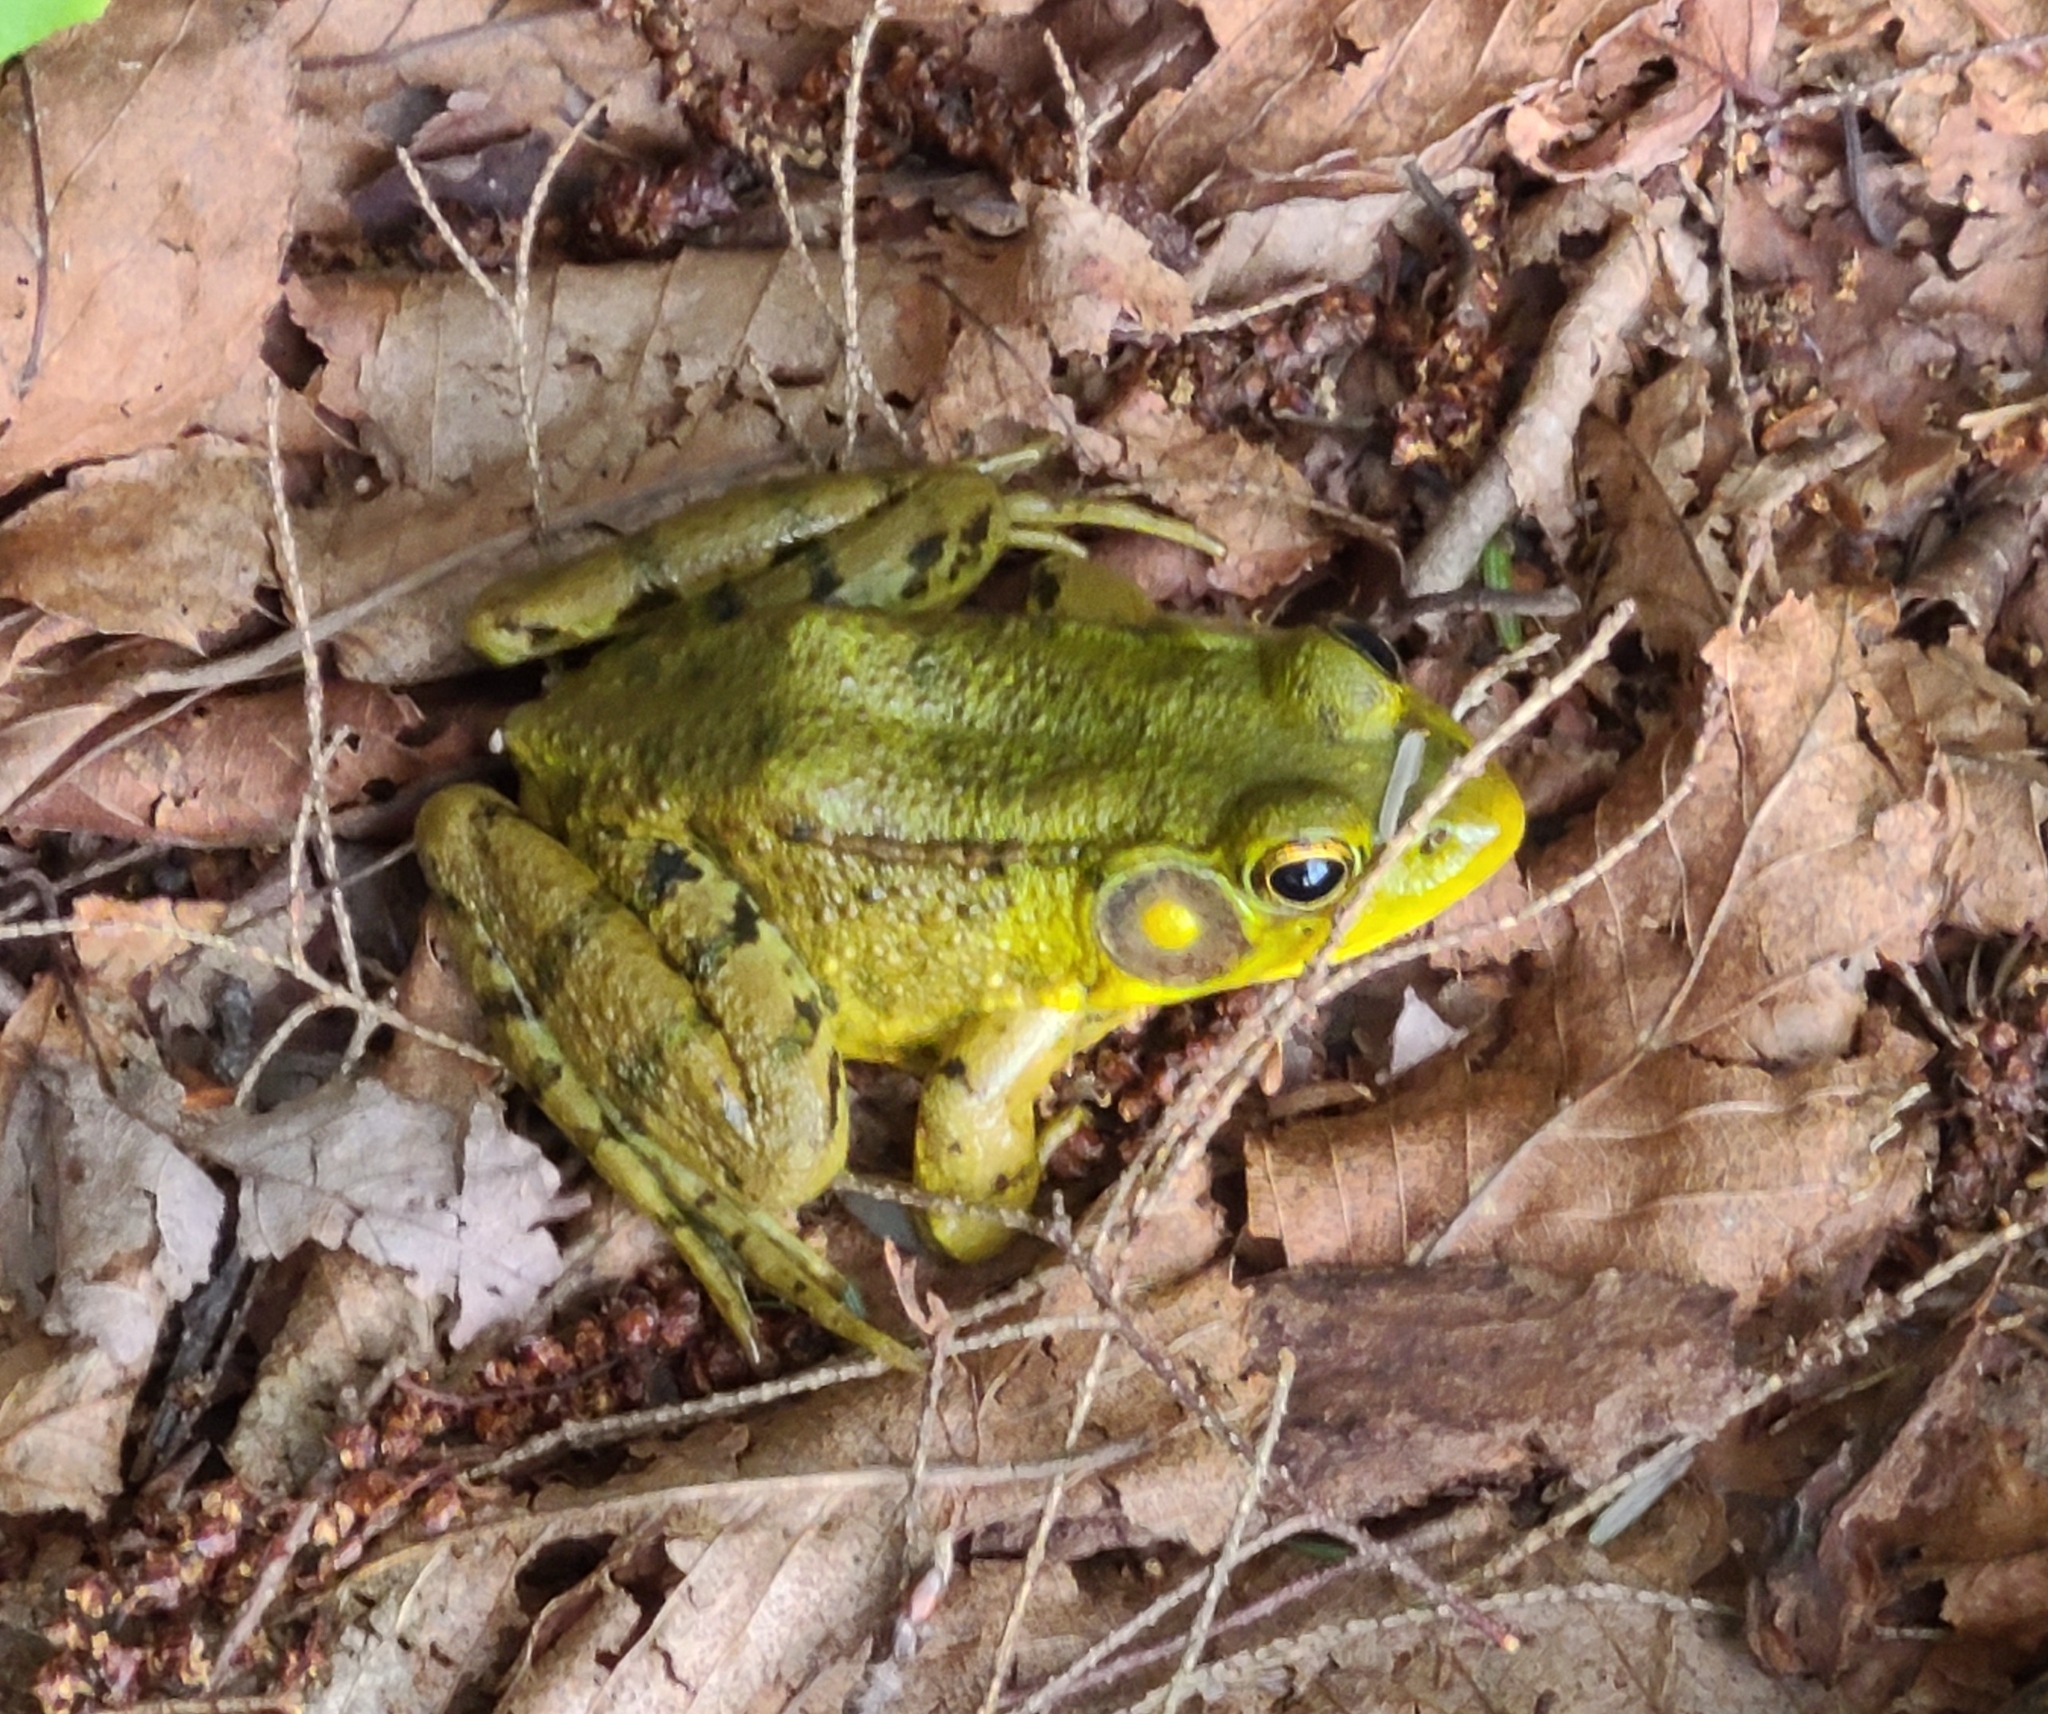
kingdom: Animalia
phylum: Chordata
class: Amphibia
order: Anura
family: Ranidae
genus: Lithobates
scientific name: Lithobates clamitans
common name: Green frog
